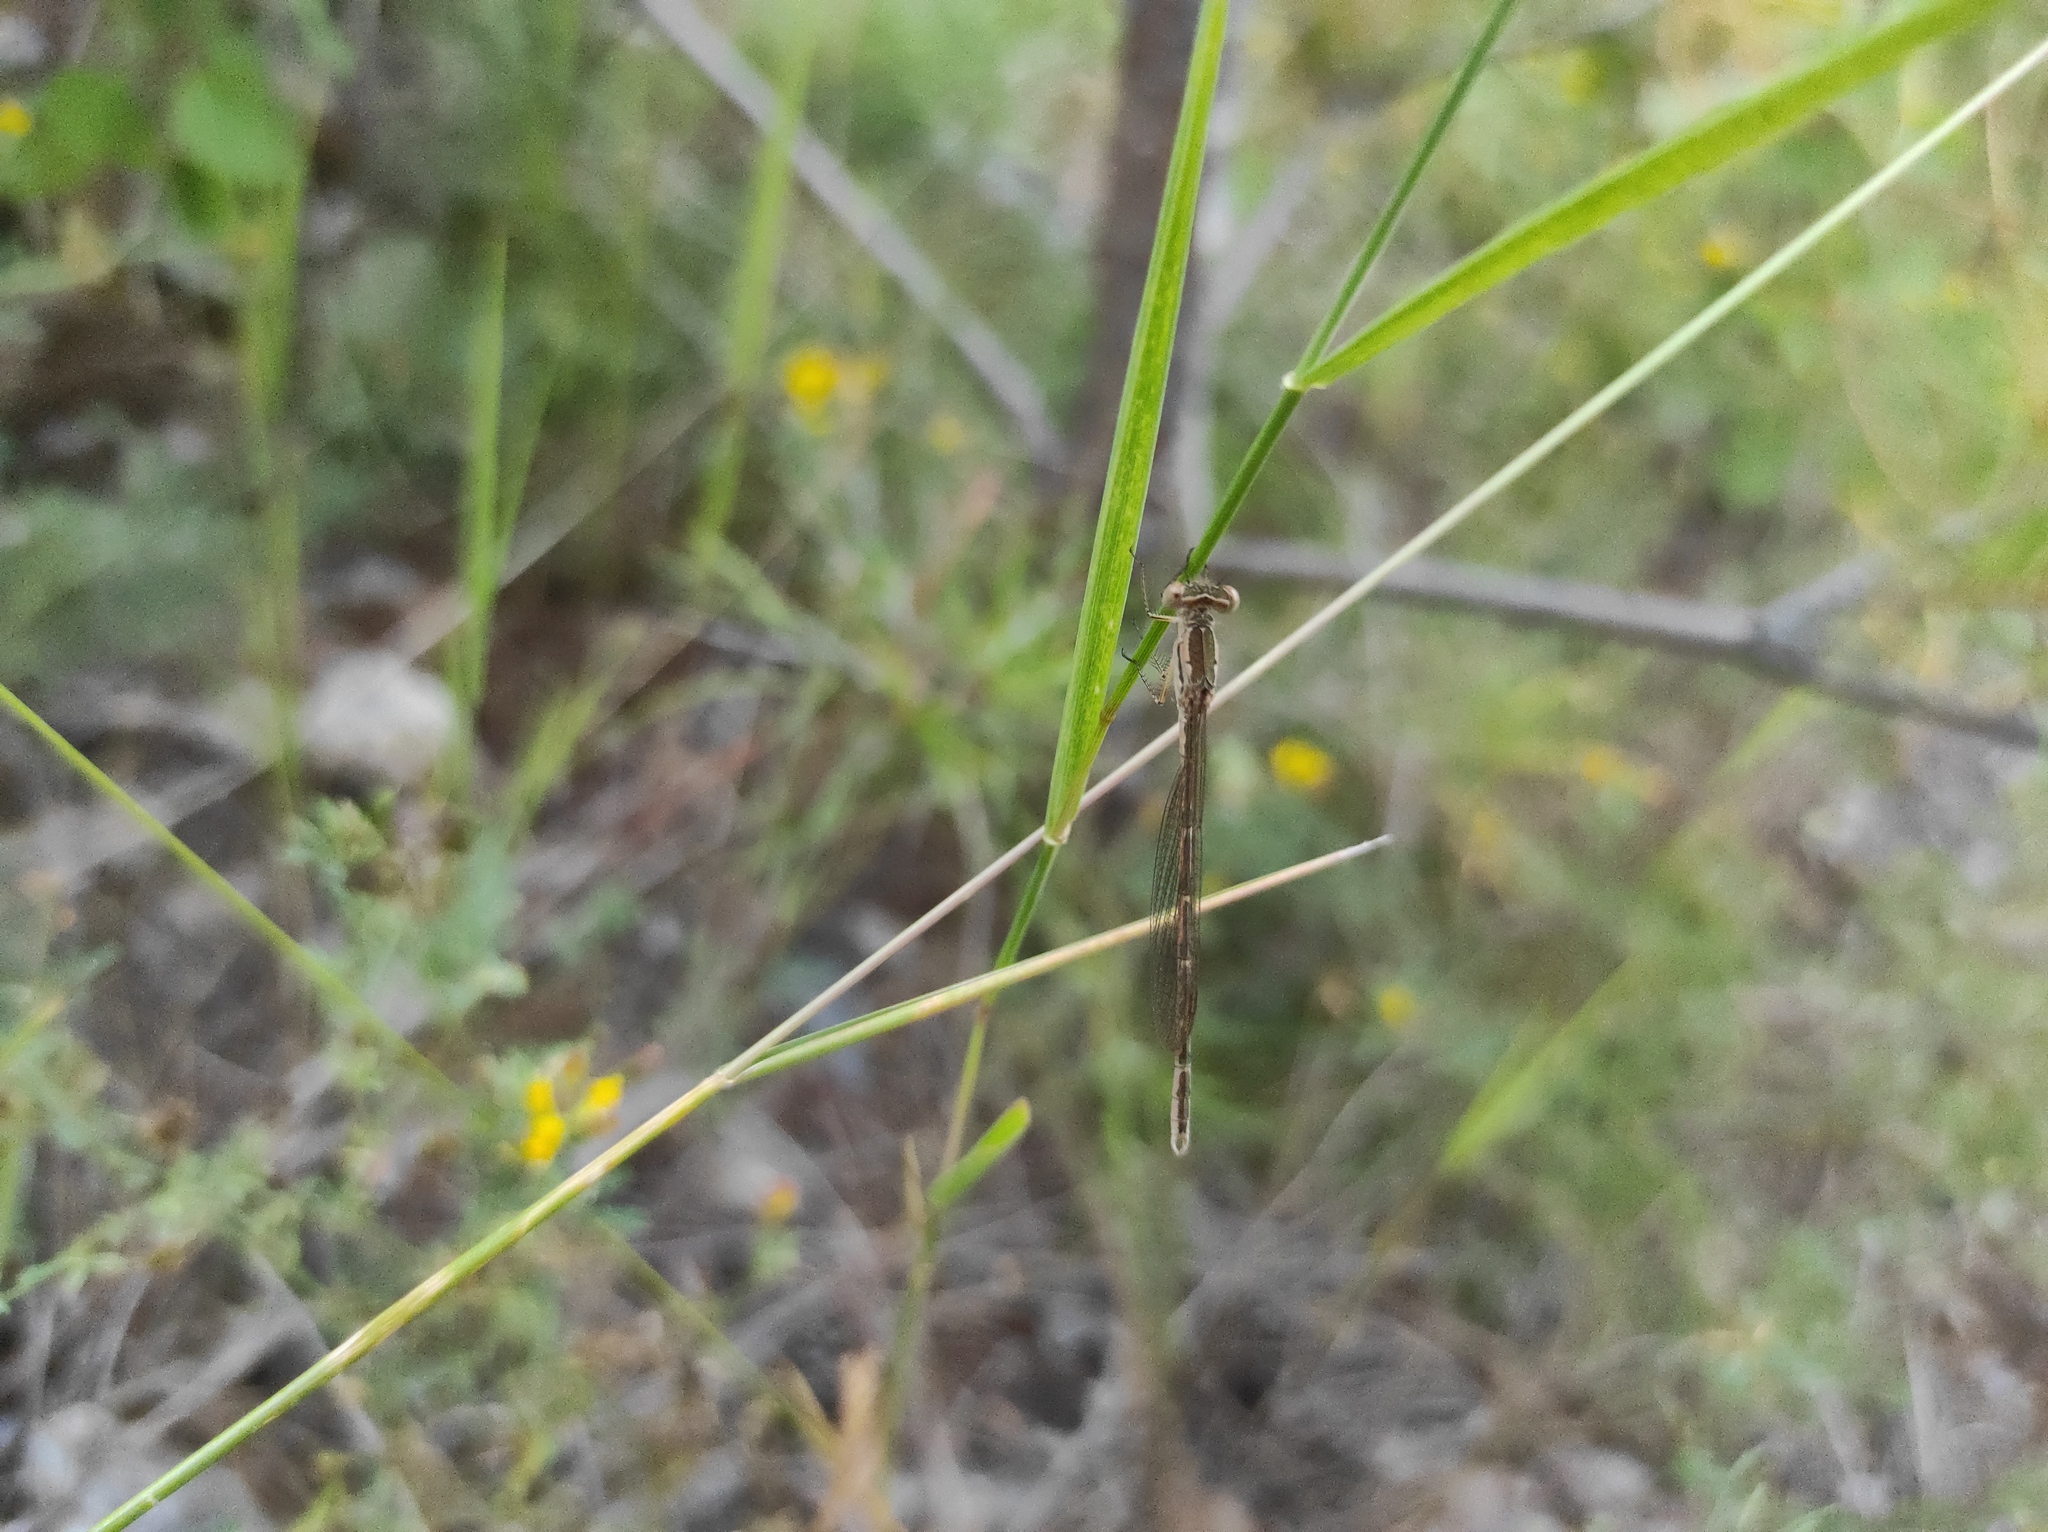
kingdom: Animalia
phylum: Arthropoda
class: Insecta
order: Odonata
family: Lestidae
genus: Sympecma
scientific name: Sympecma paedisca
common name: Siberian winter damsel
